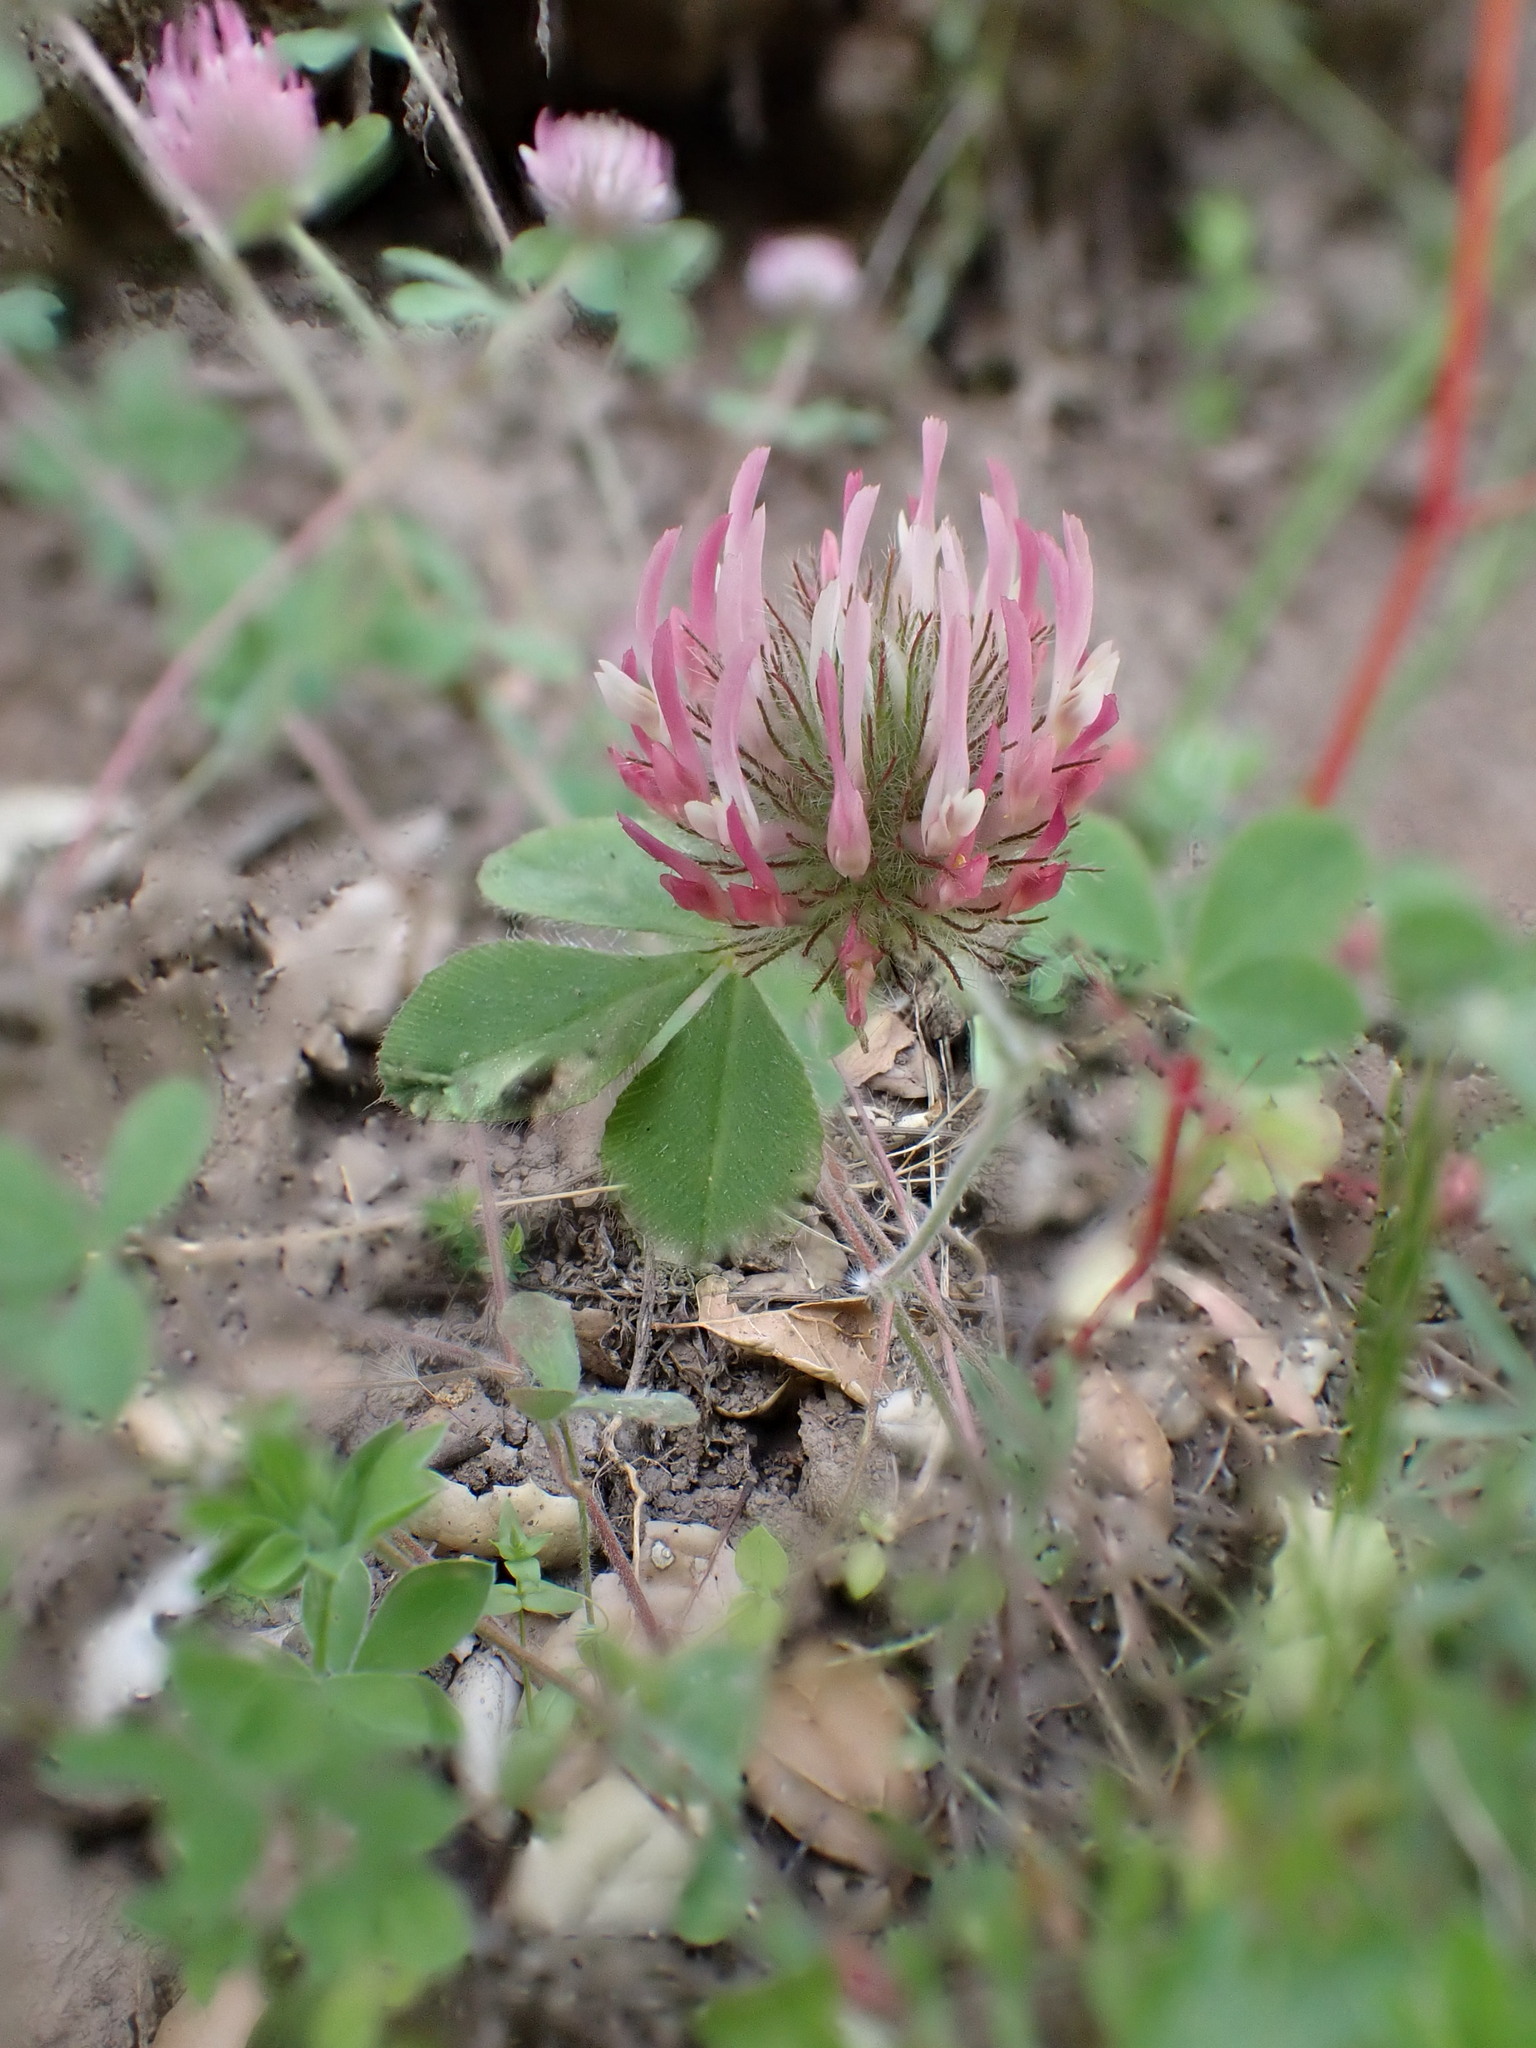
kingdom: Plantae
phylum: Tracheophyta
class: Magnoliopsida
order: Fabales
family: Fabaceae
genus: Trifolium
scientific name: Trifolium hirtum
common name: Rose clover
